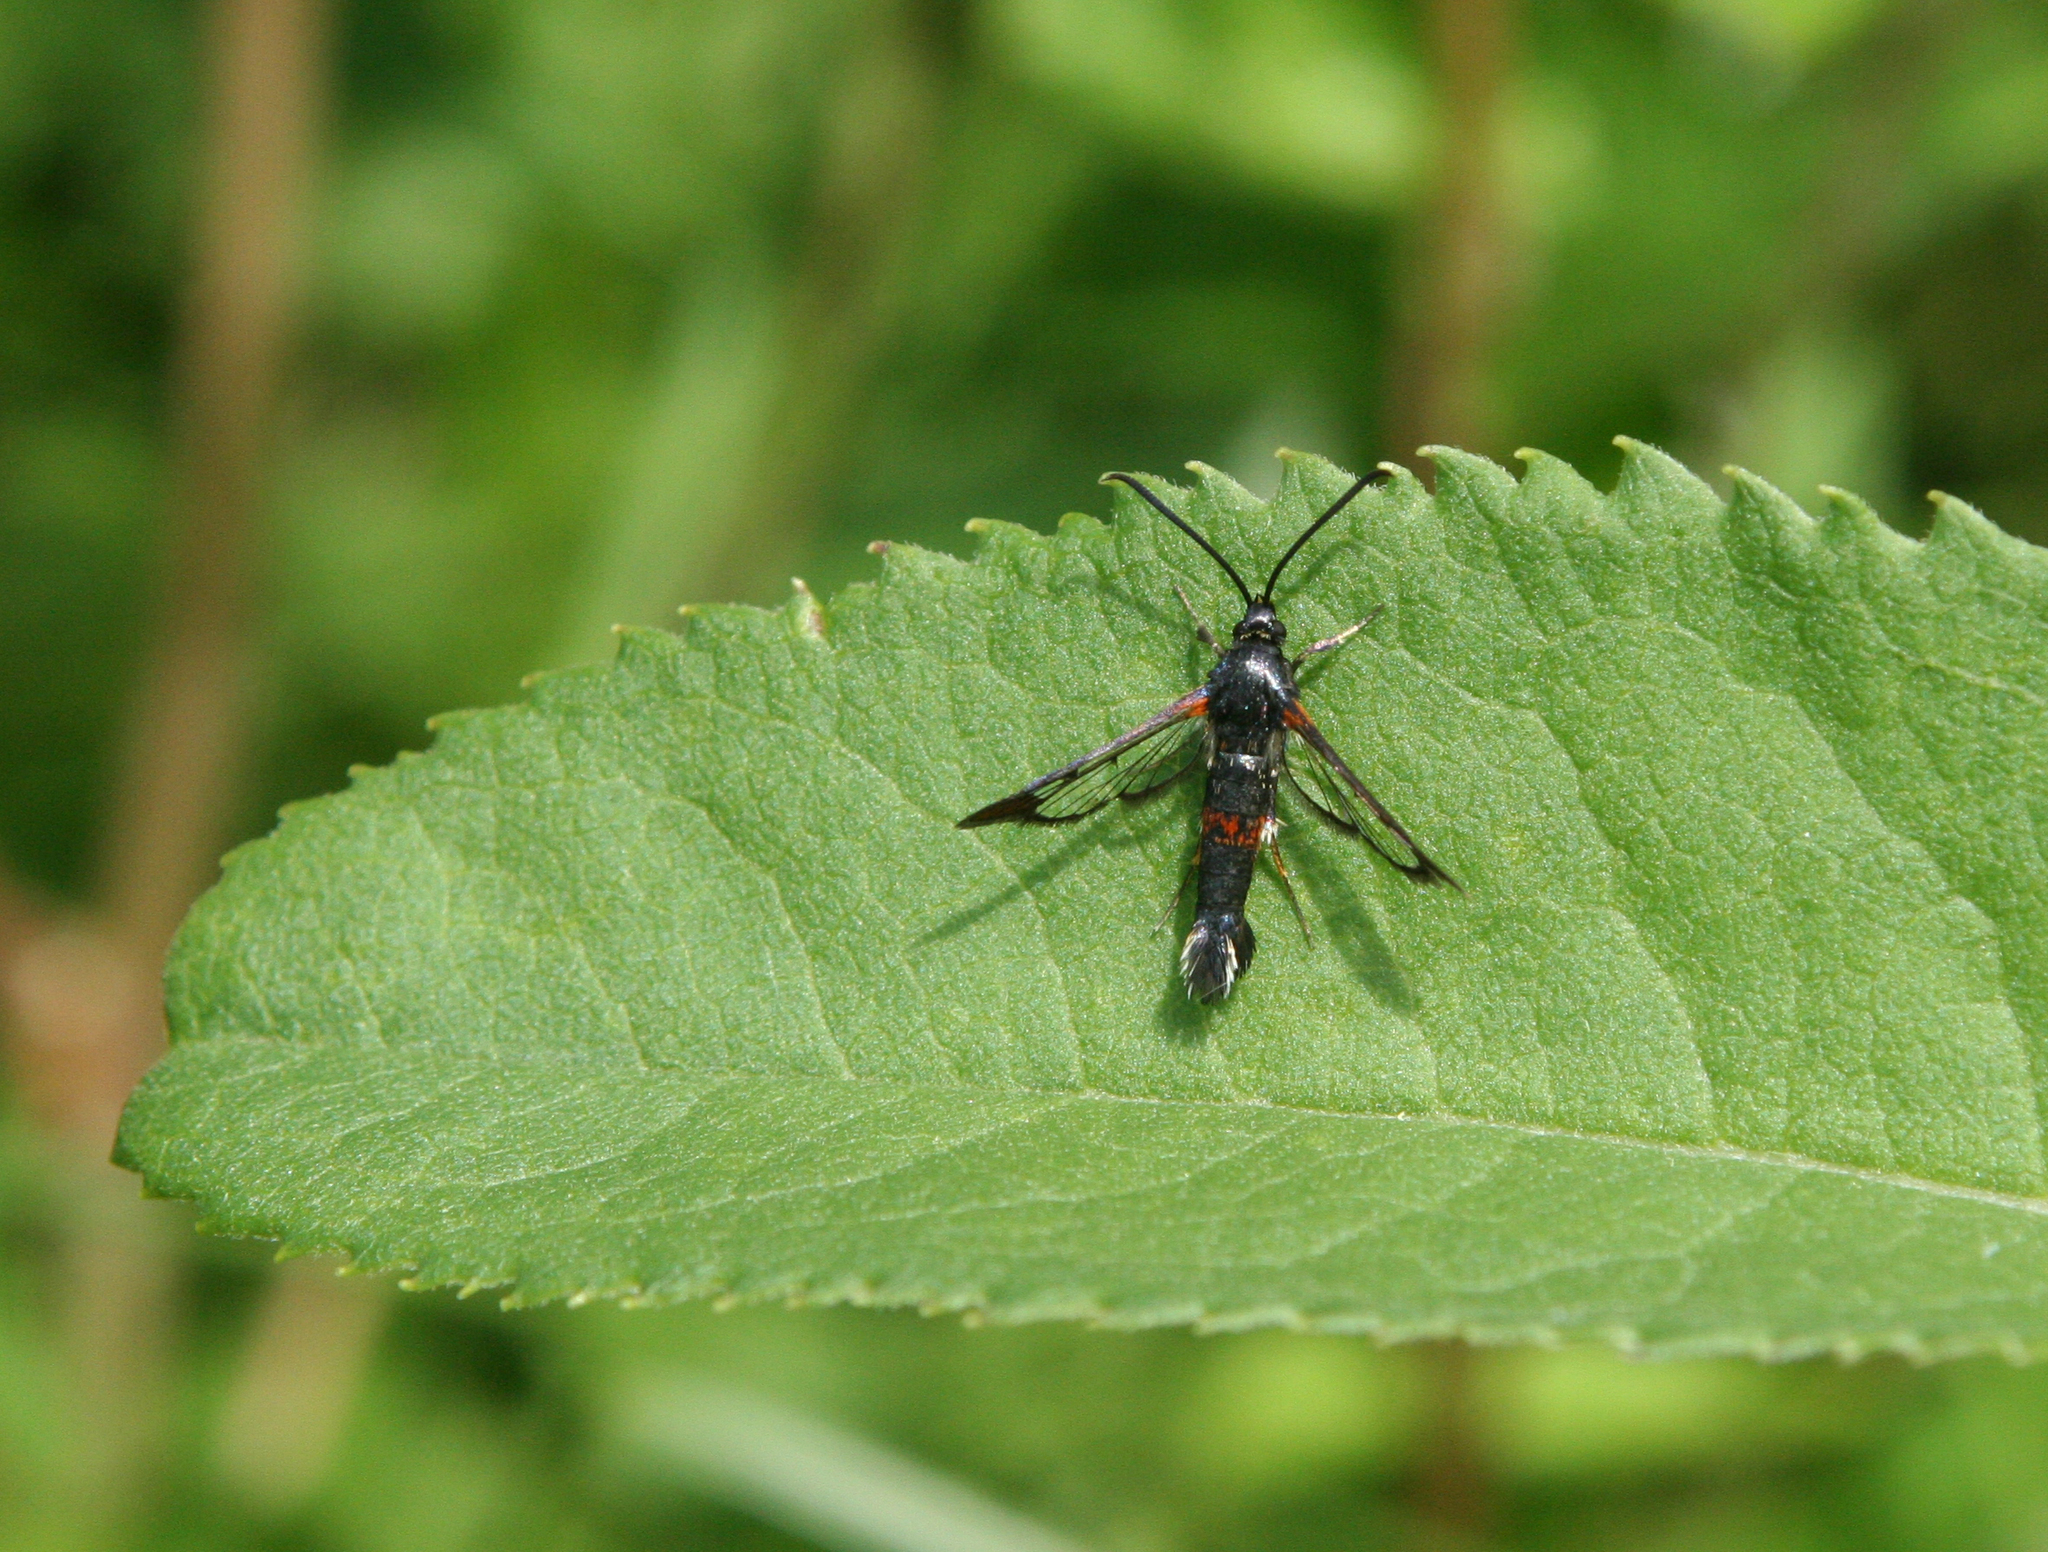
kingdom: Animalia
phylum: Arthropoda
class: Insecta
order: Lepidoptera
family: Sesiidae
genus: Synanthedon
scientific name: Synanthedon formicaeformis
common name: Red-tipped clearwing
